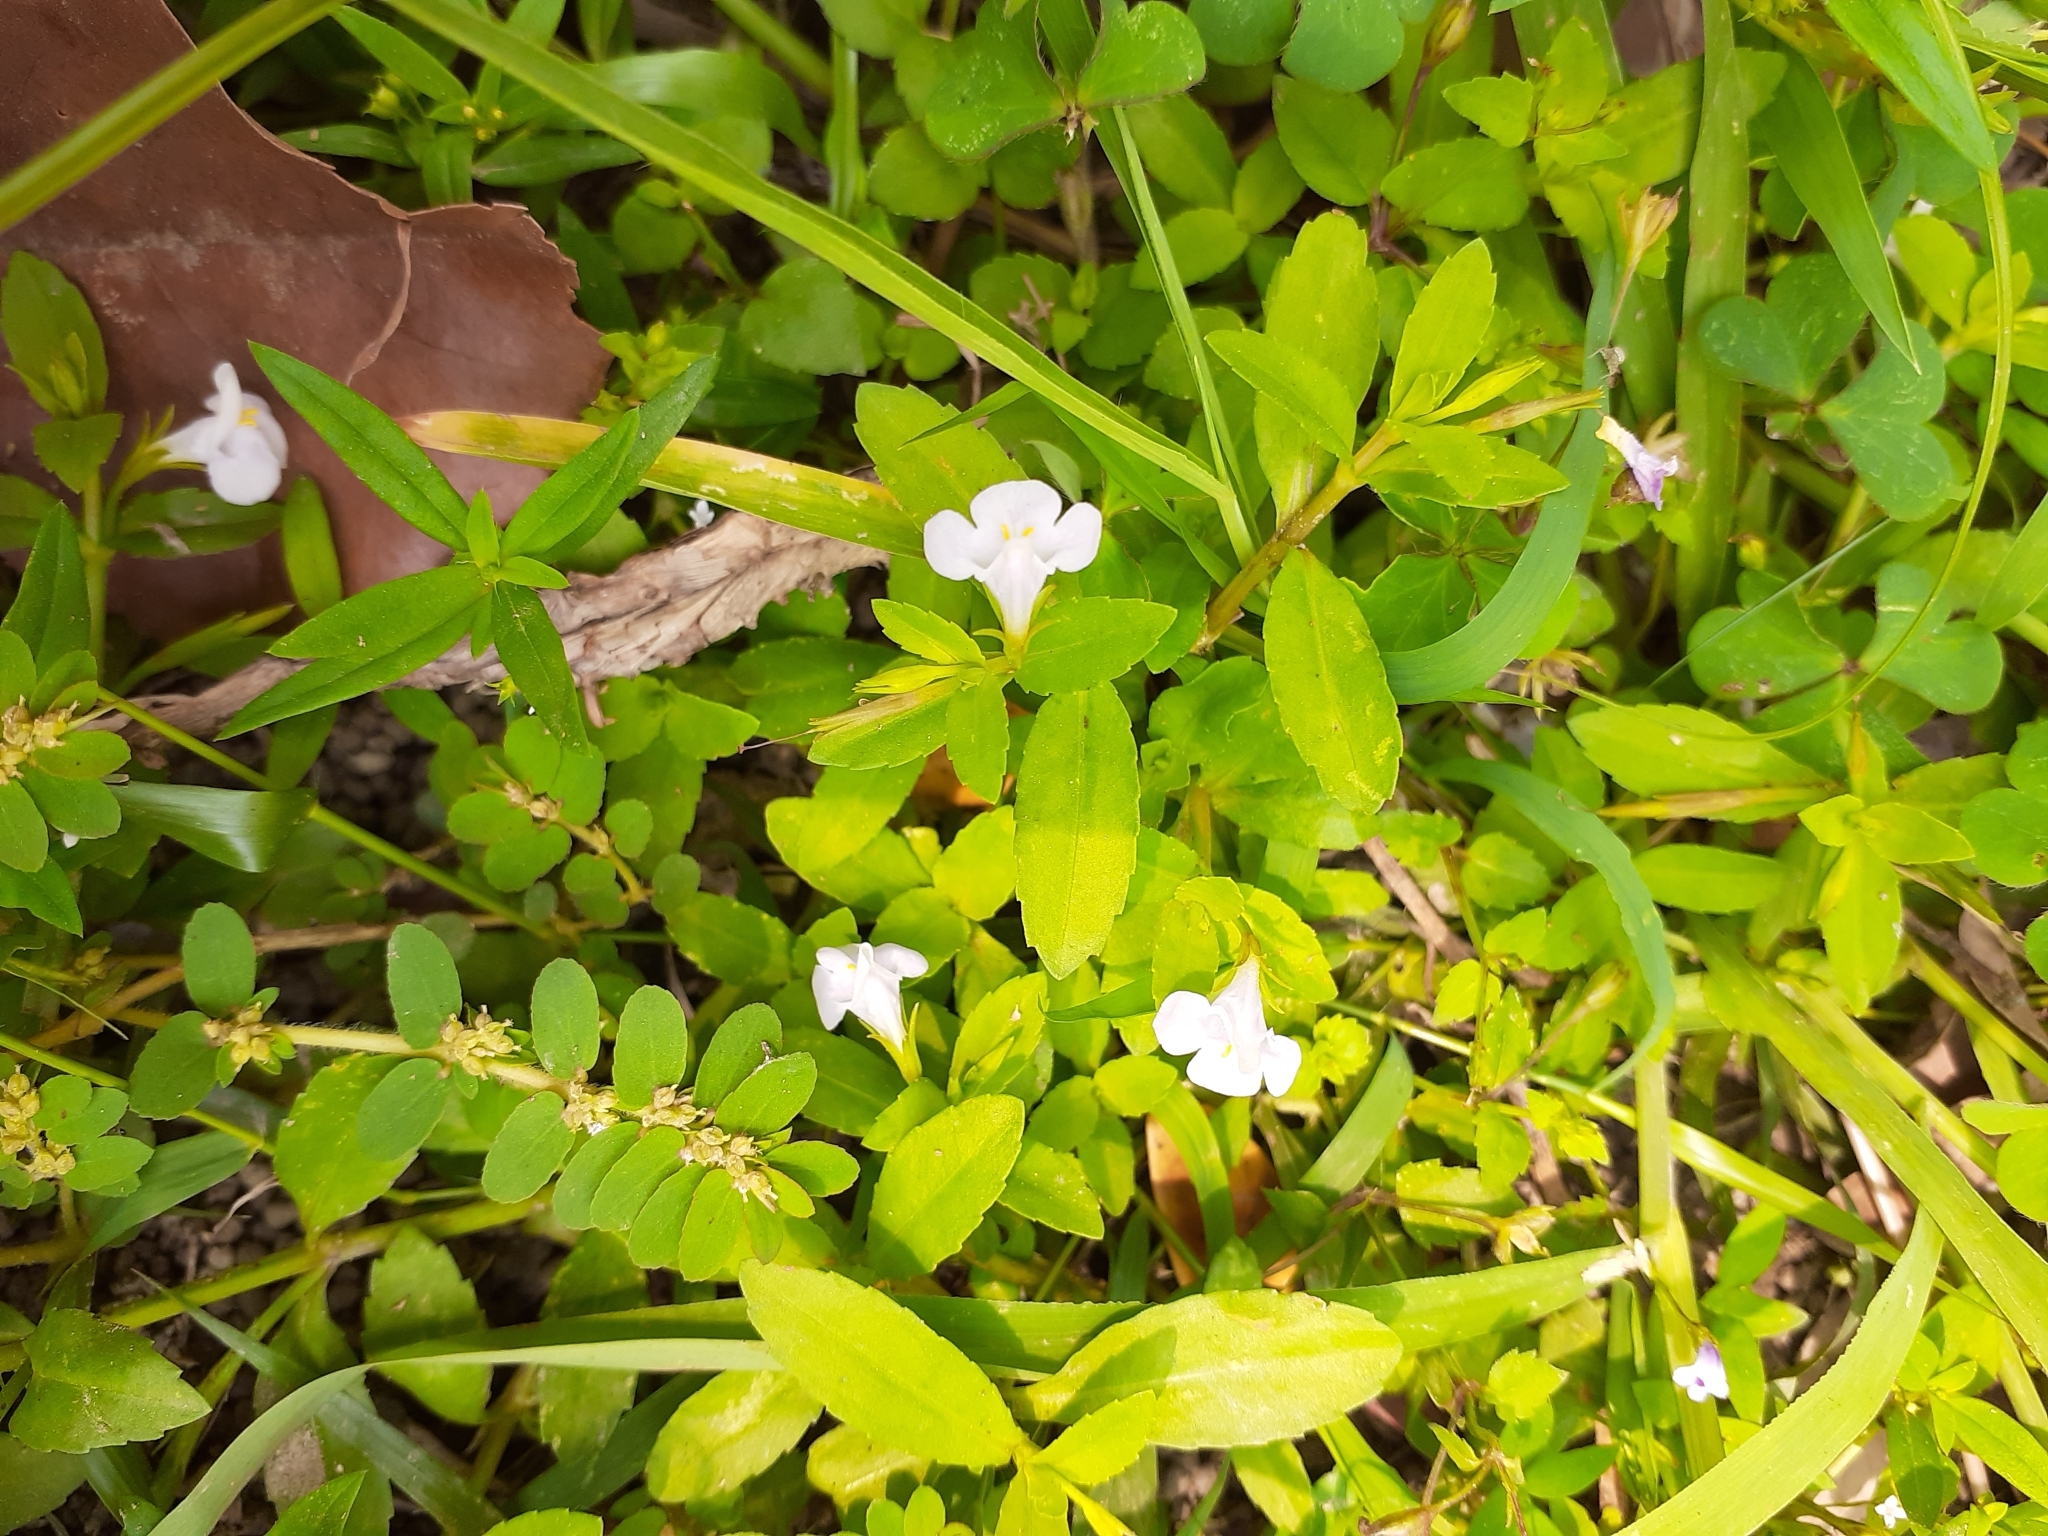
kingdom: Plantae
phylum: Tracheophyta
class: Magnoliopsida
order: Lamiales
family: Linderniaceae
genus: Bonnaya
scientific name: Bonnaya antipoda
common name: Sparrow false pimpernel
